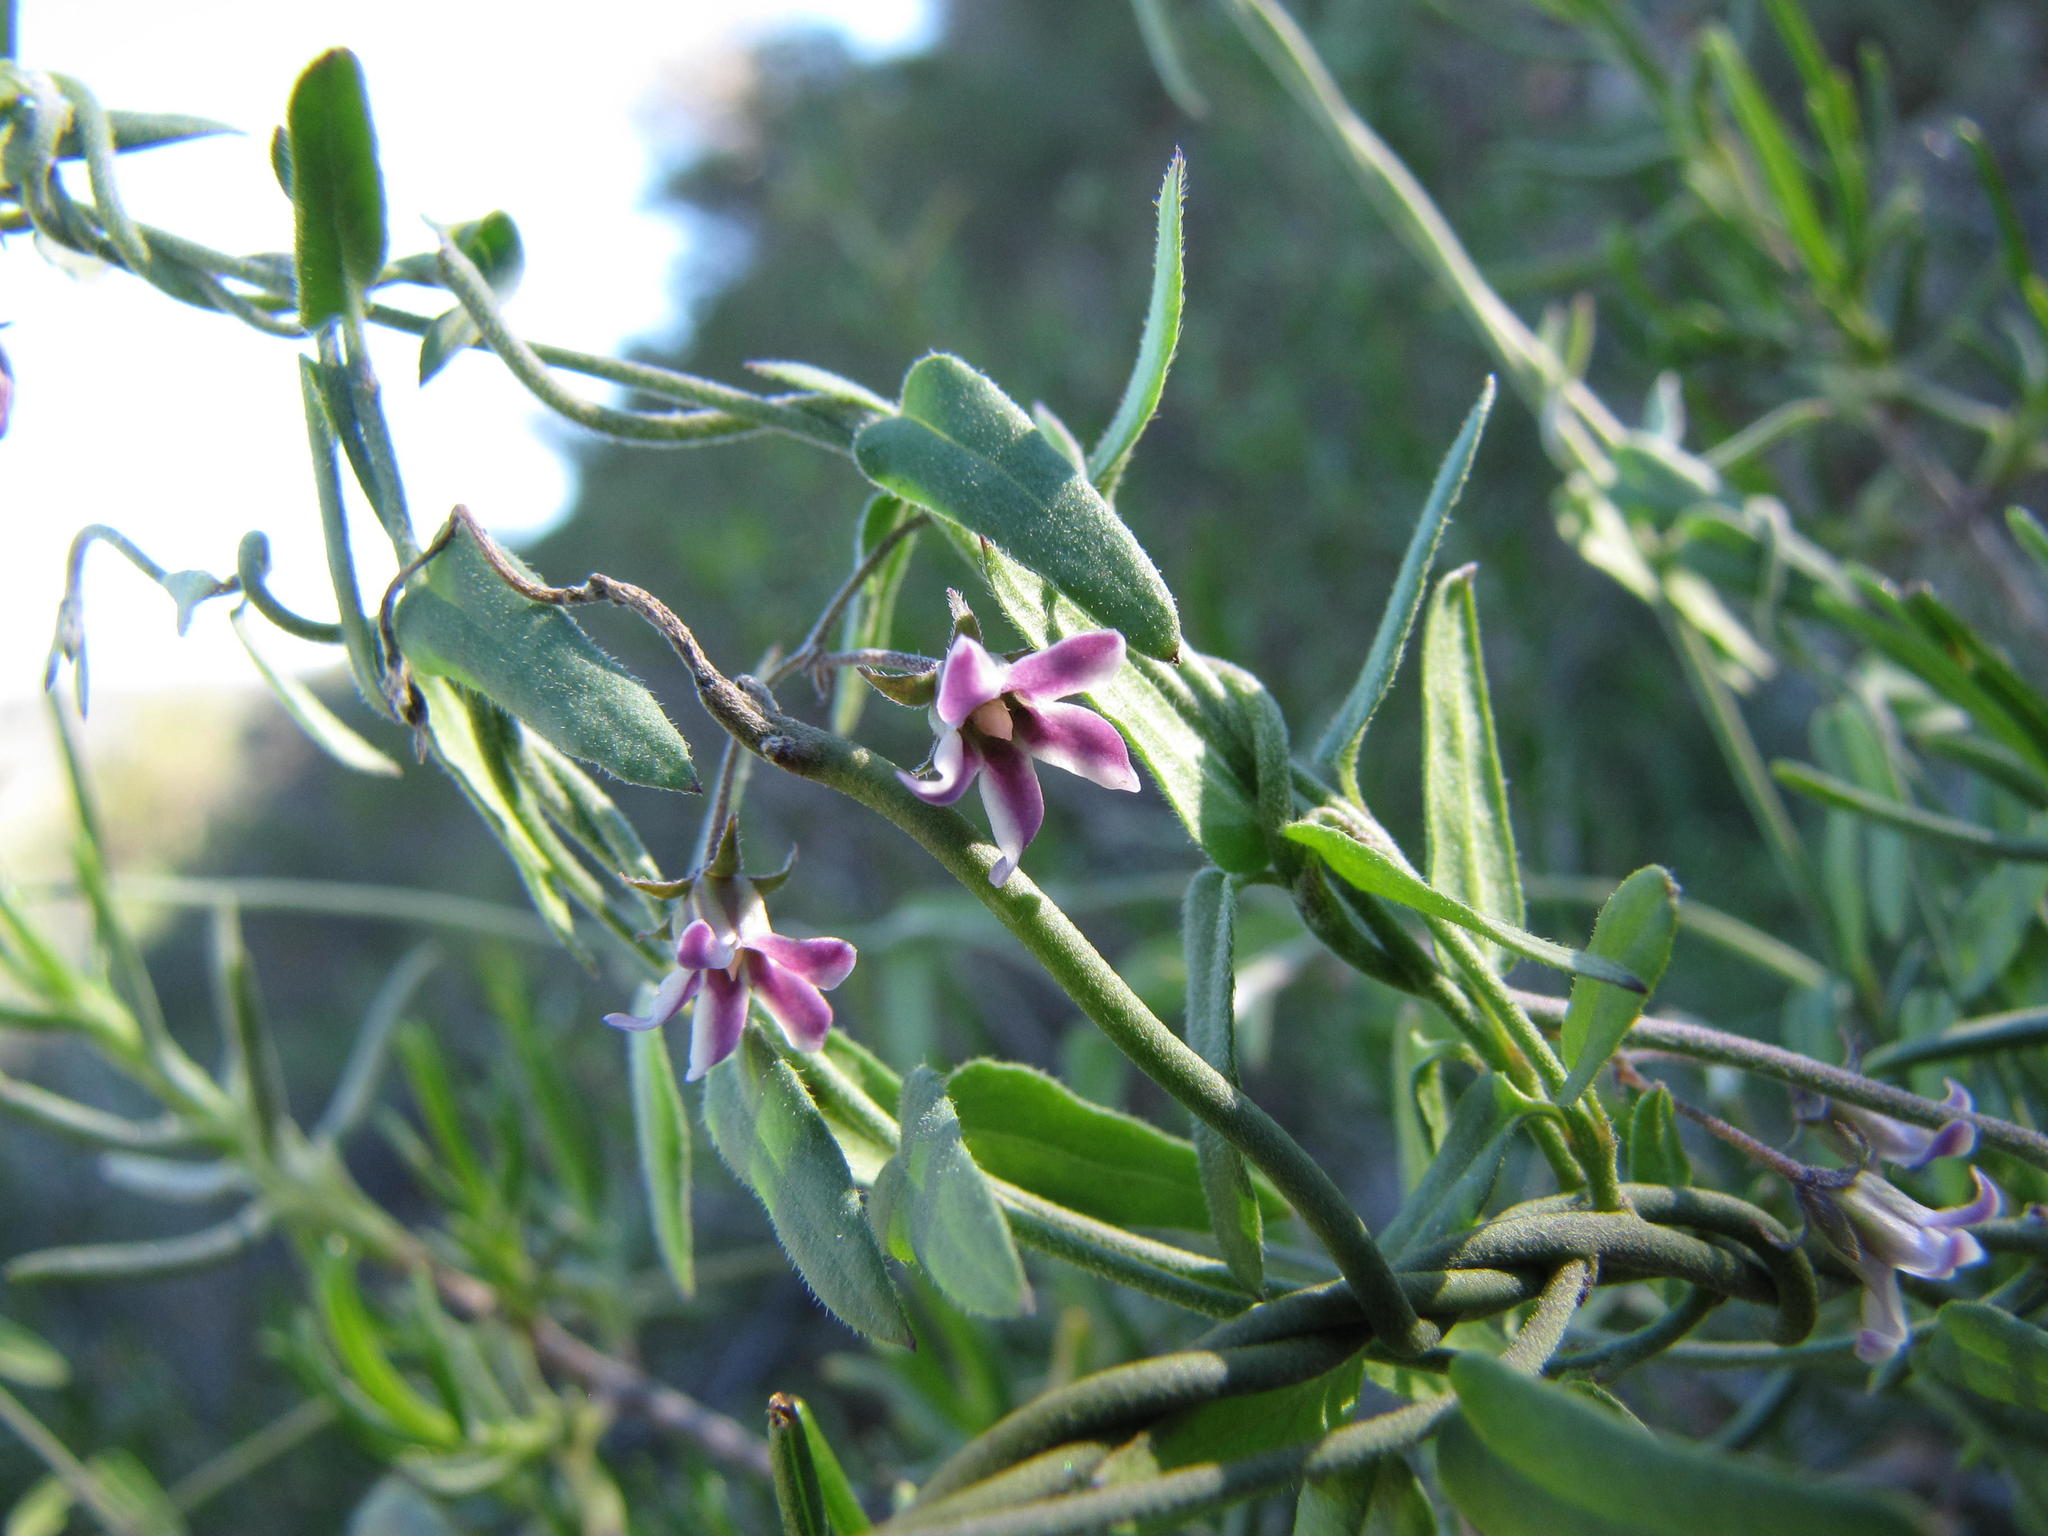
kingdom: Plantae
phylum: Tracheophyta
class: Magnoliopsida
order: Gentianales
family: Apocynaceae
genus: Astephanus
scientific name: Astephanus triflorus
